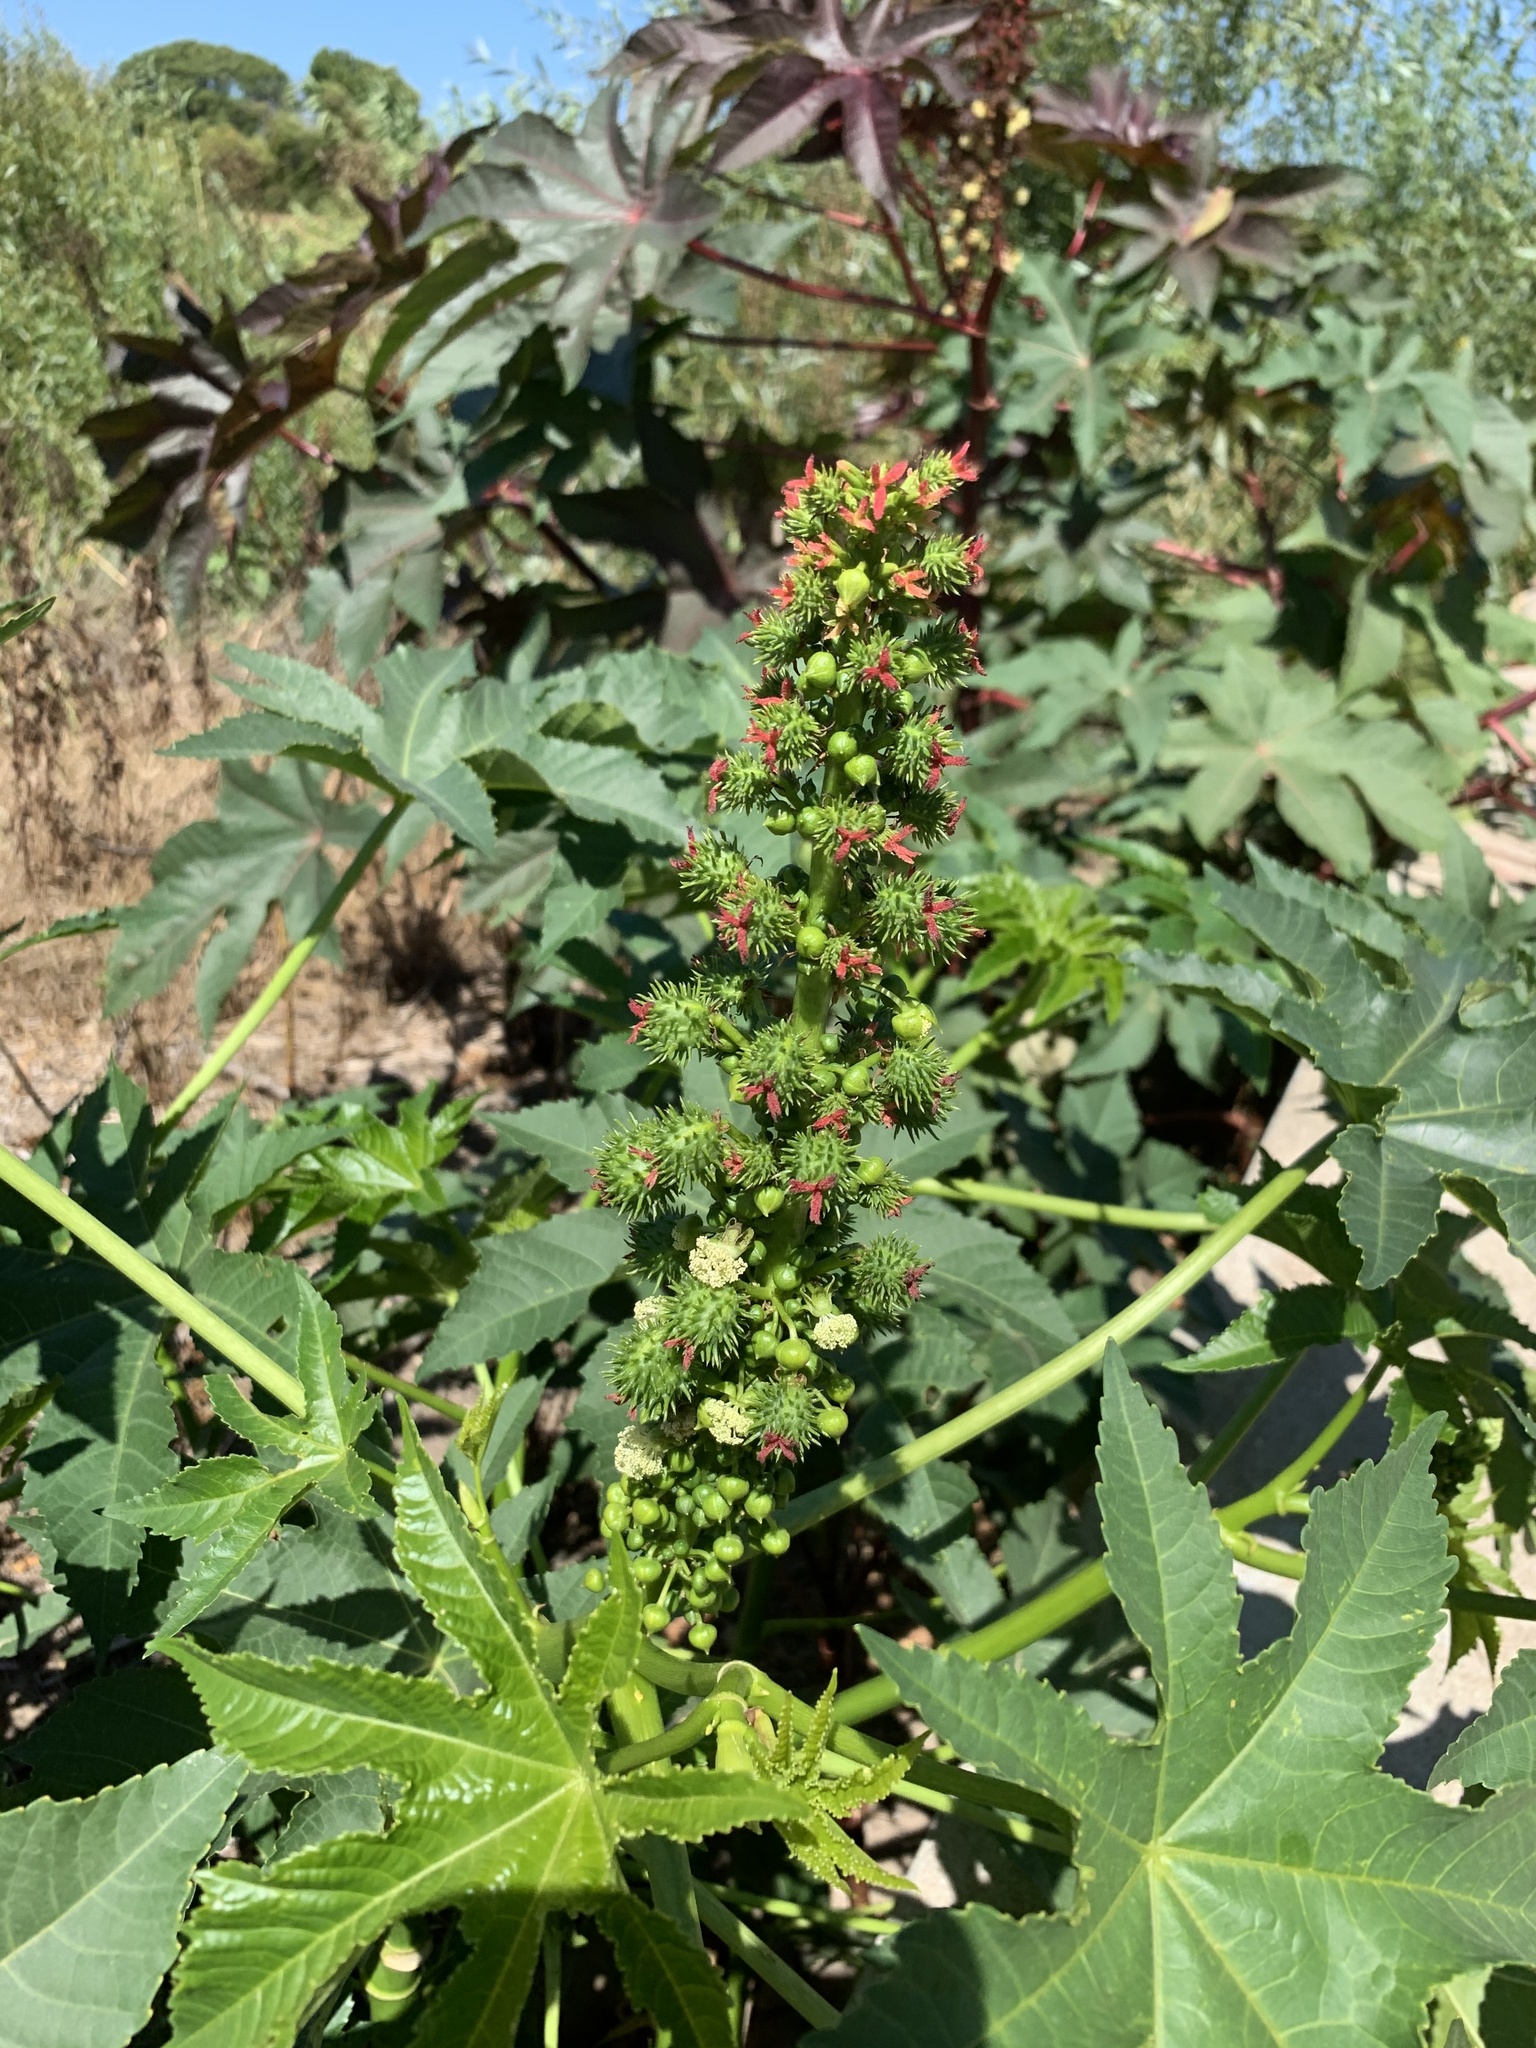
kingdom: Plantae
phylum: Tracheophyta
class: Magnoliopsida
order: Malpighiales
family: Euphorbiaceae
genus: Ricinus
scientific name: Ricinus communis
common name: Castor-oil-plant
